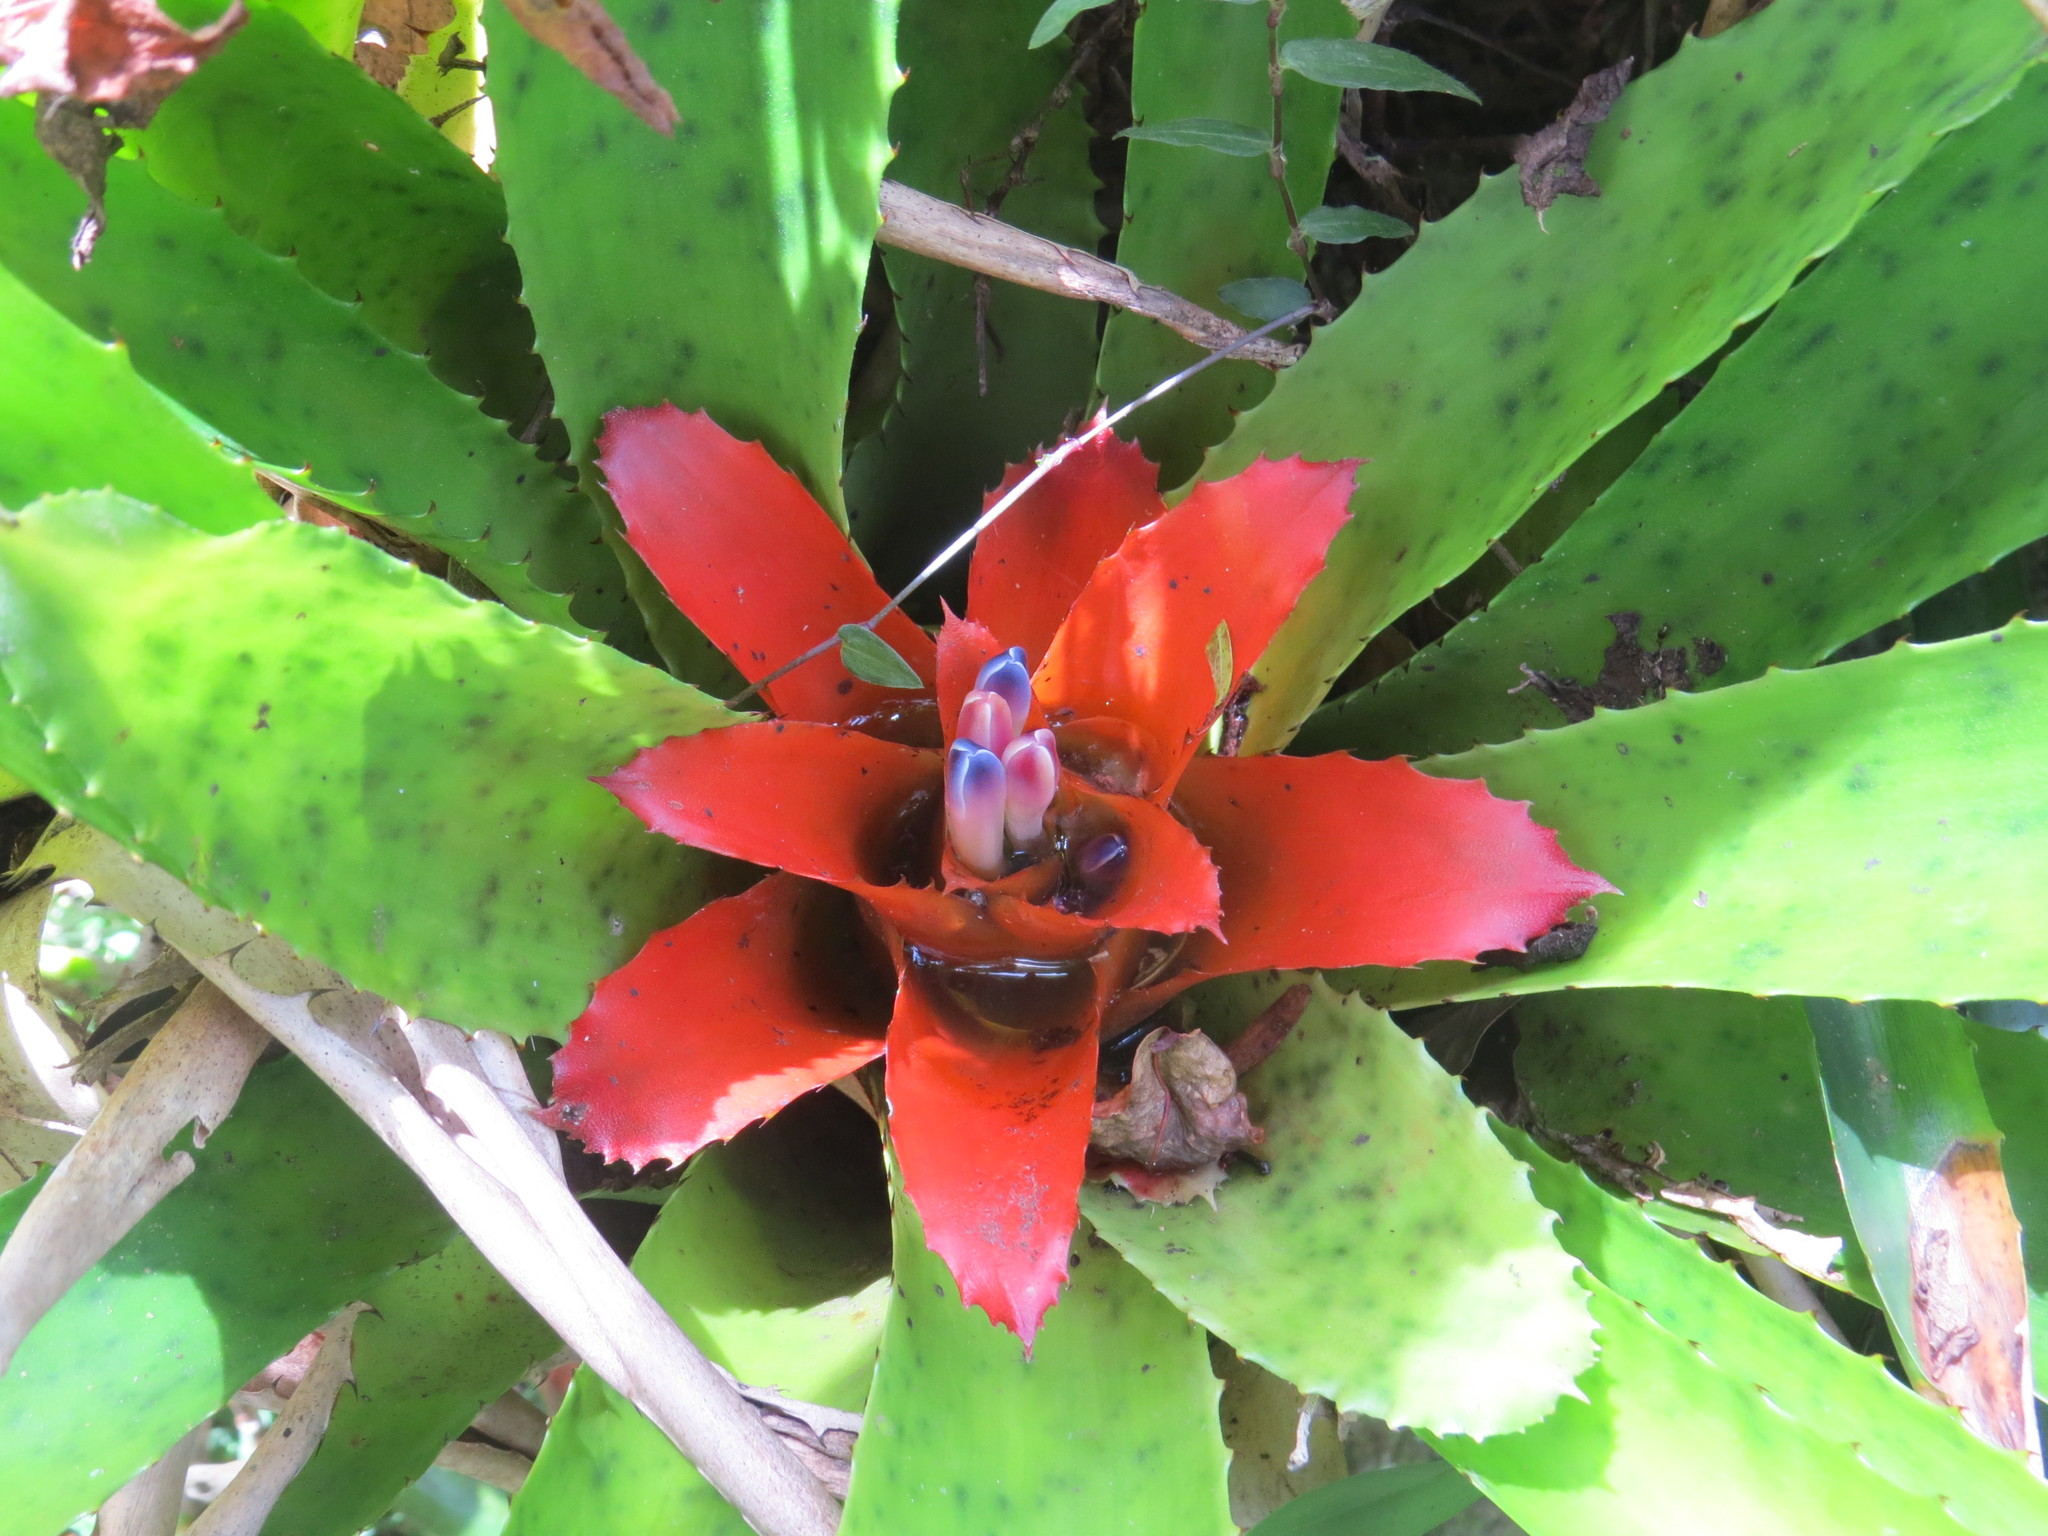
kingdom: Plantae
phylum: Tracheophyta
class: Liliopsida
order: Poales
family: Bromeliaceae
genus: Nidularium
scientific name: Nidularium fulgens
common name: Blushing bromeliad
